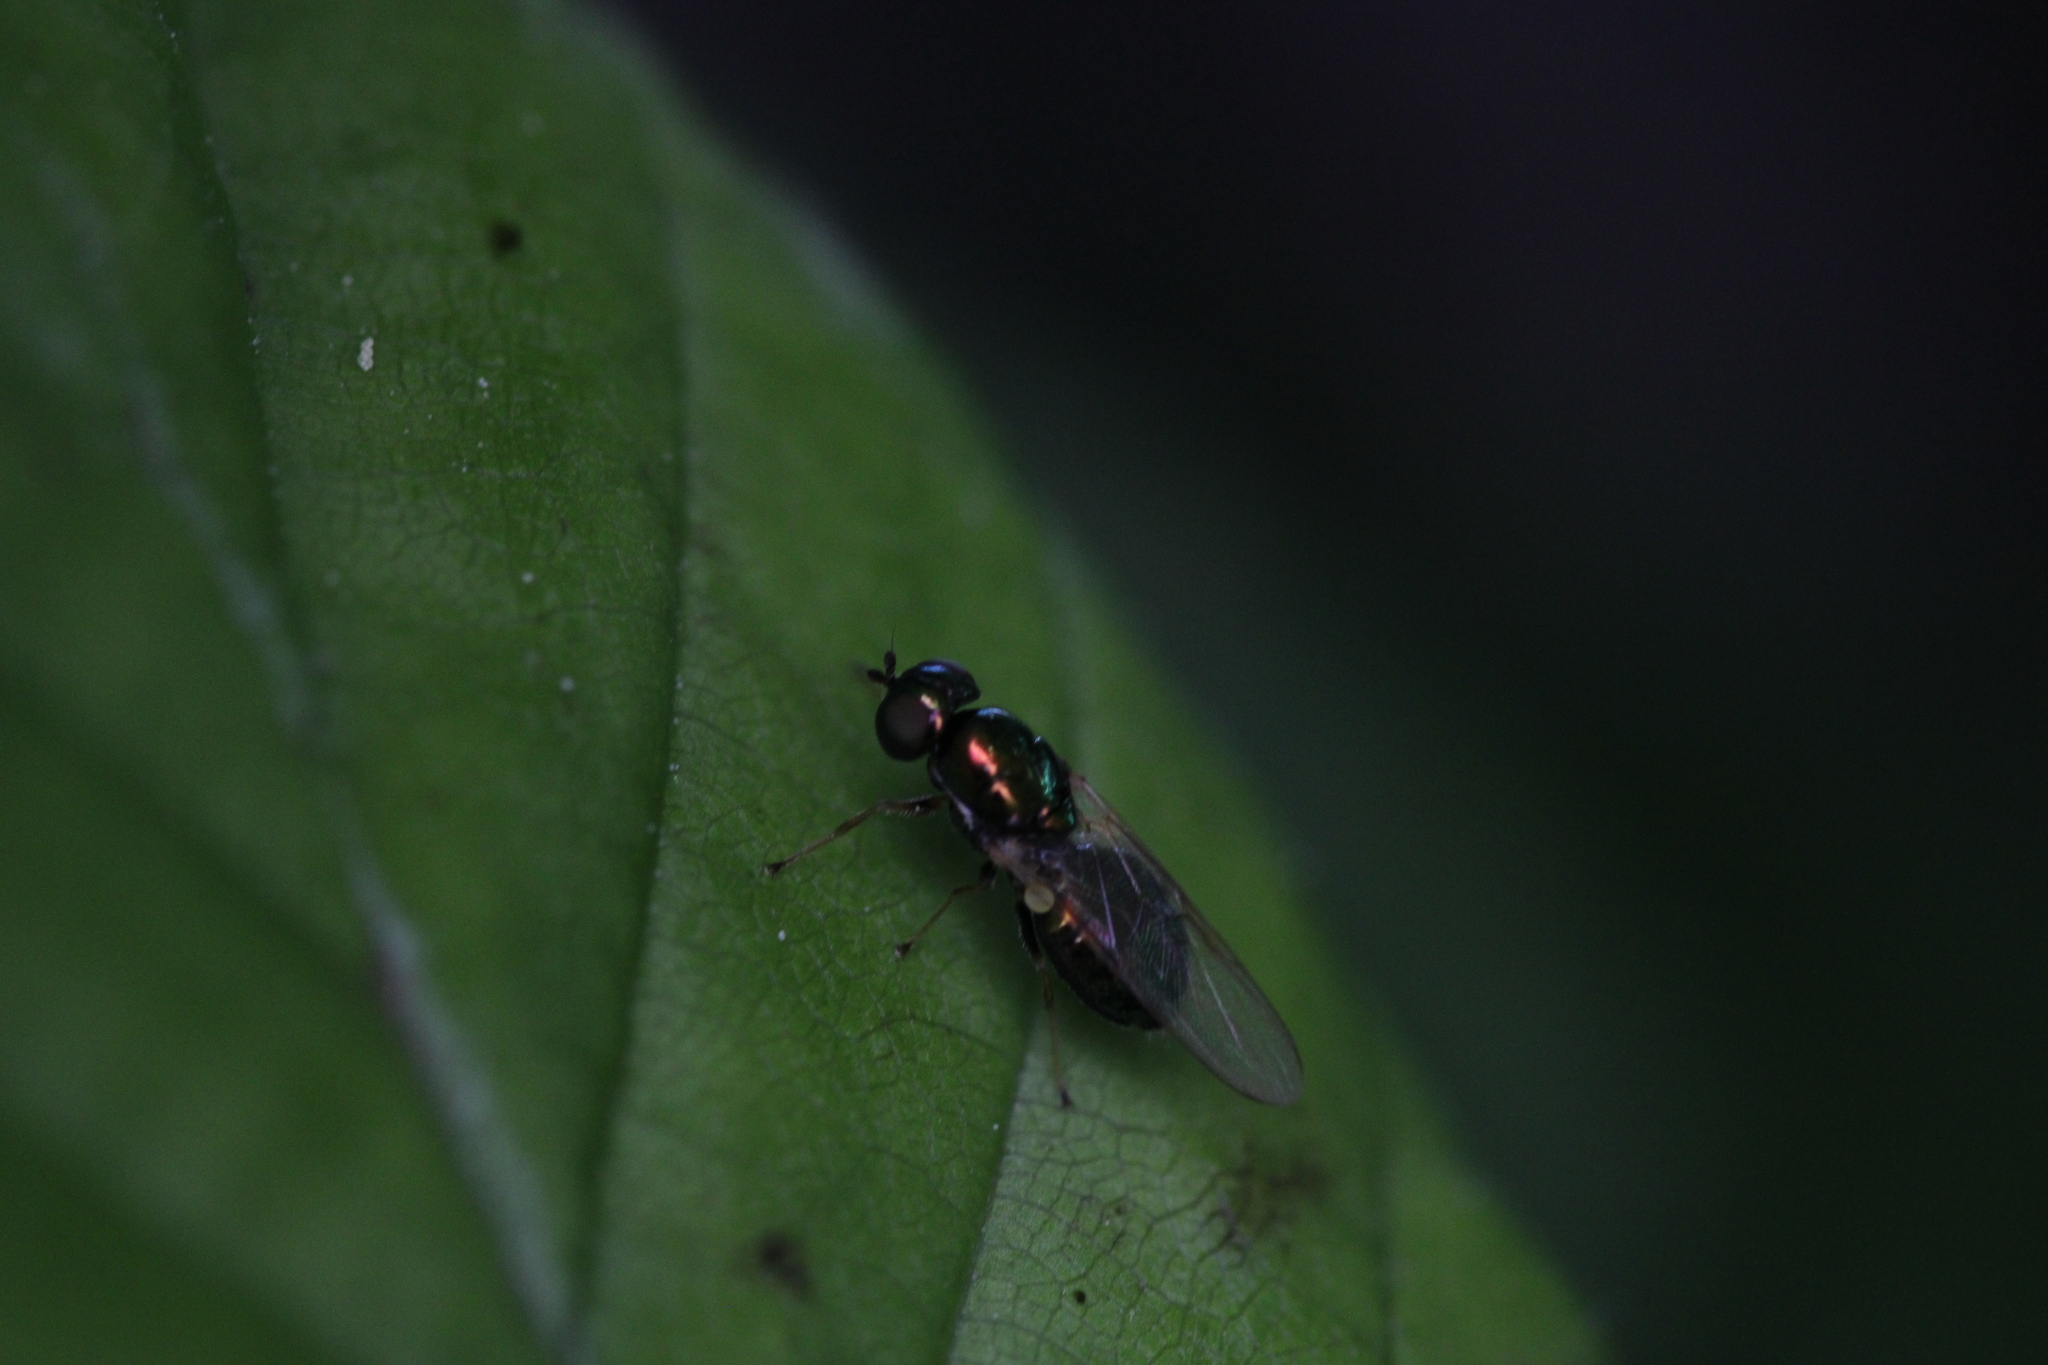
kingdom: Animalia
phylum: Arthropoda
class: Insecta
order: Diptera
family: Stratiomyidae
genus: Microchrysa
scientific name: Microchrysa polita
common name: Black-horned gem
